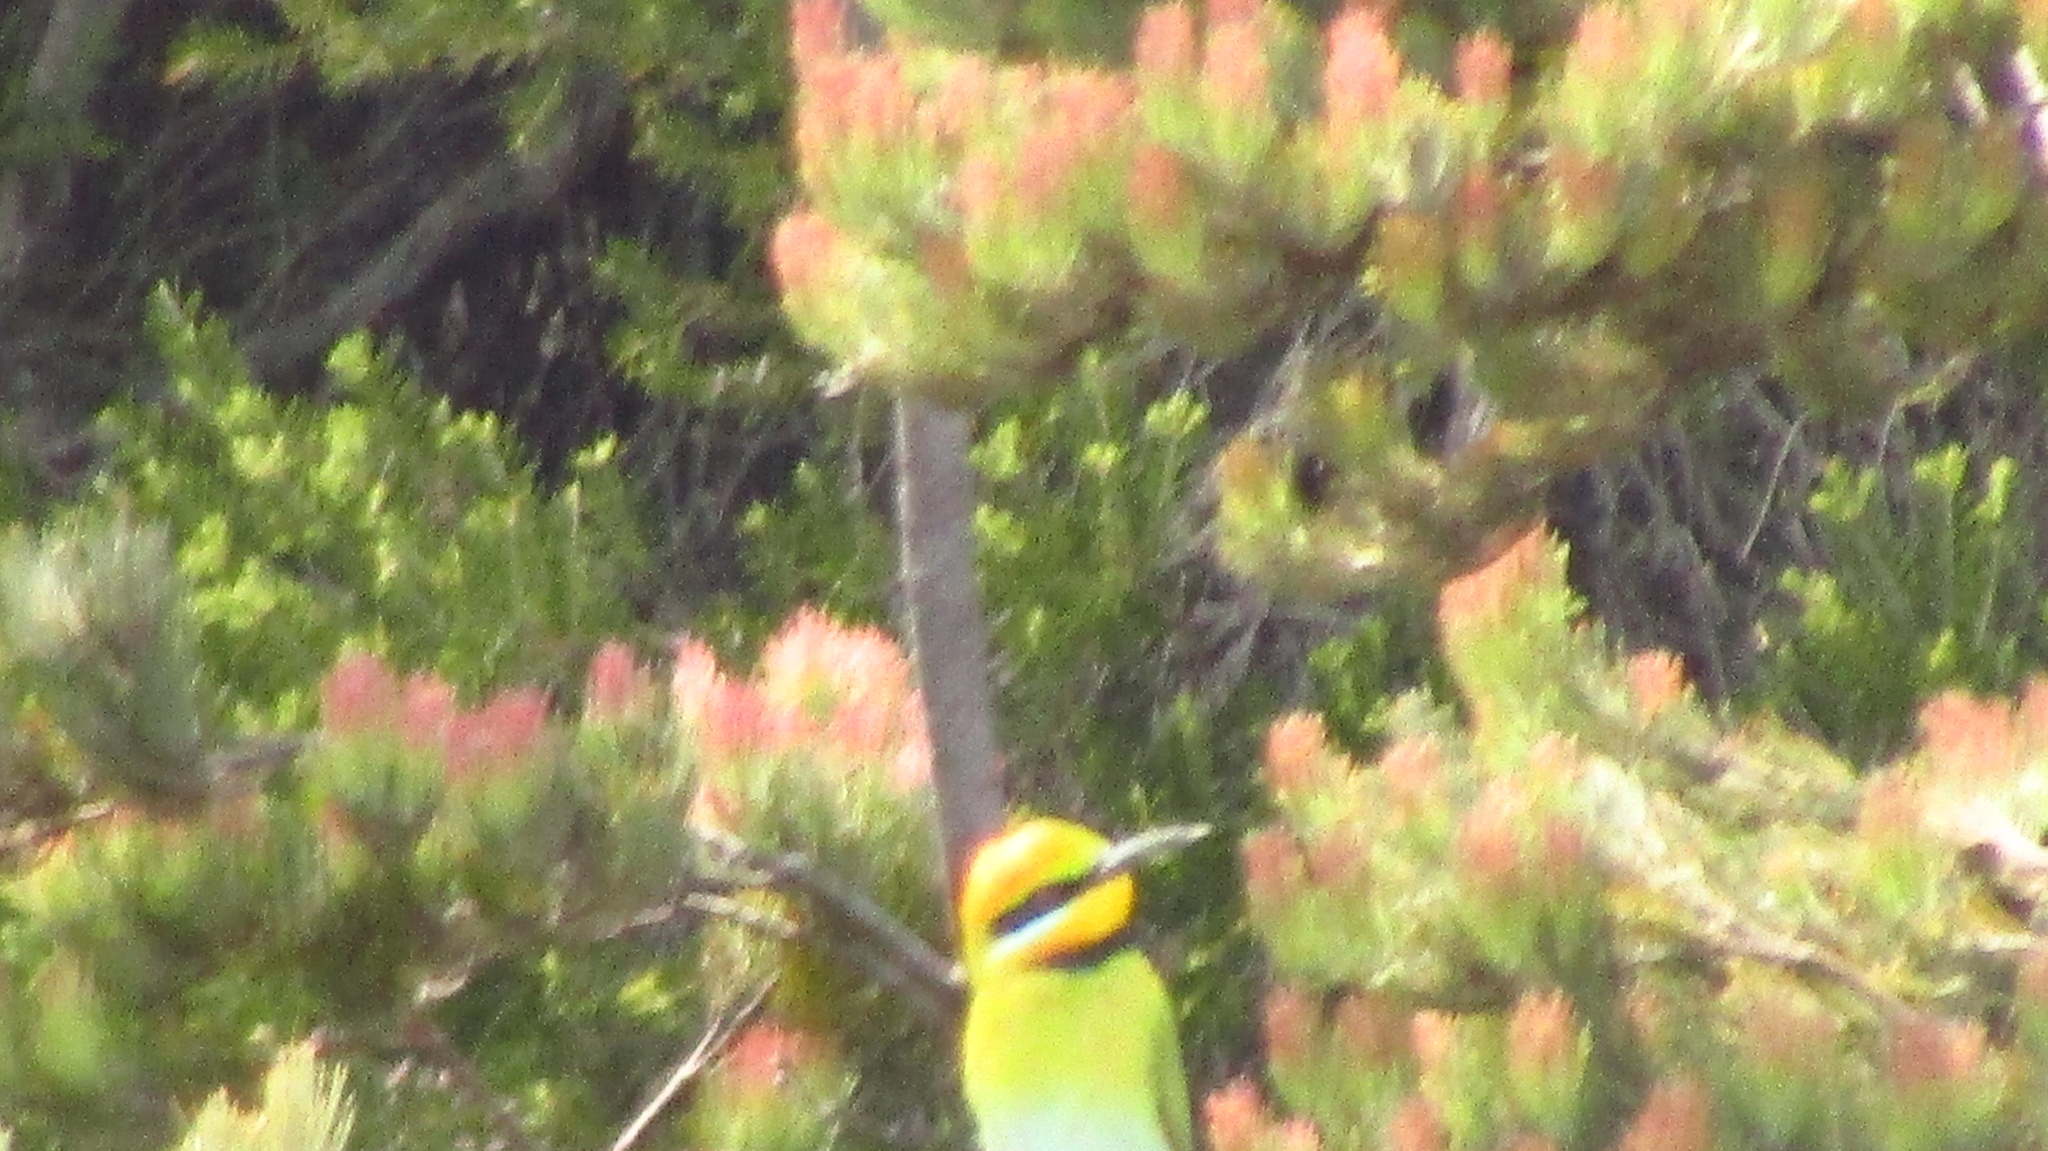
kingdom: Animalia
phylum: Chordata
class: Aves
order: Coraciiformes
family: Meropidae
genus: Merops
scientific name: Merops ornatus
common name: Rainbow bee-eater
